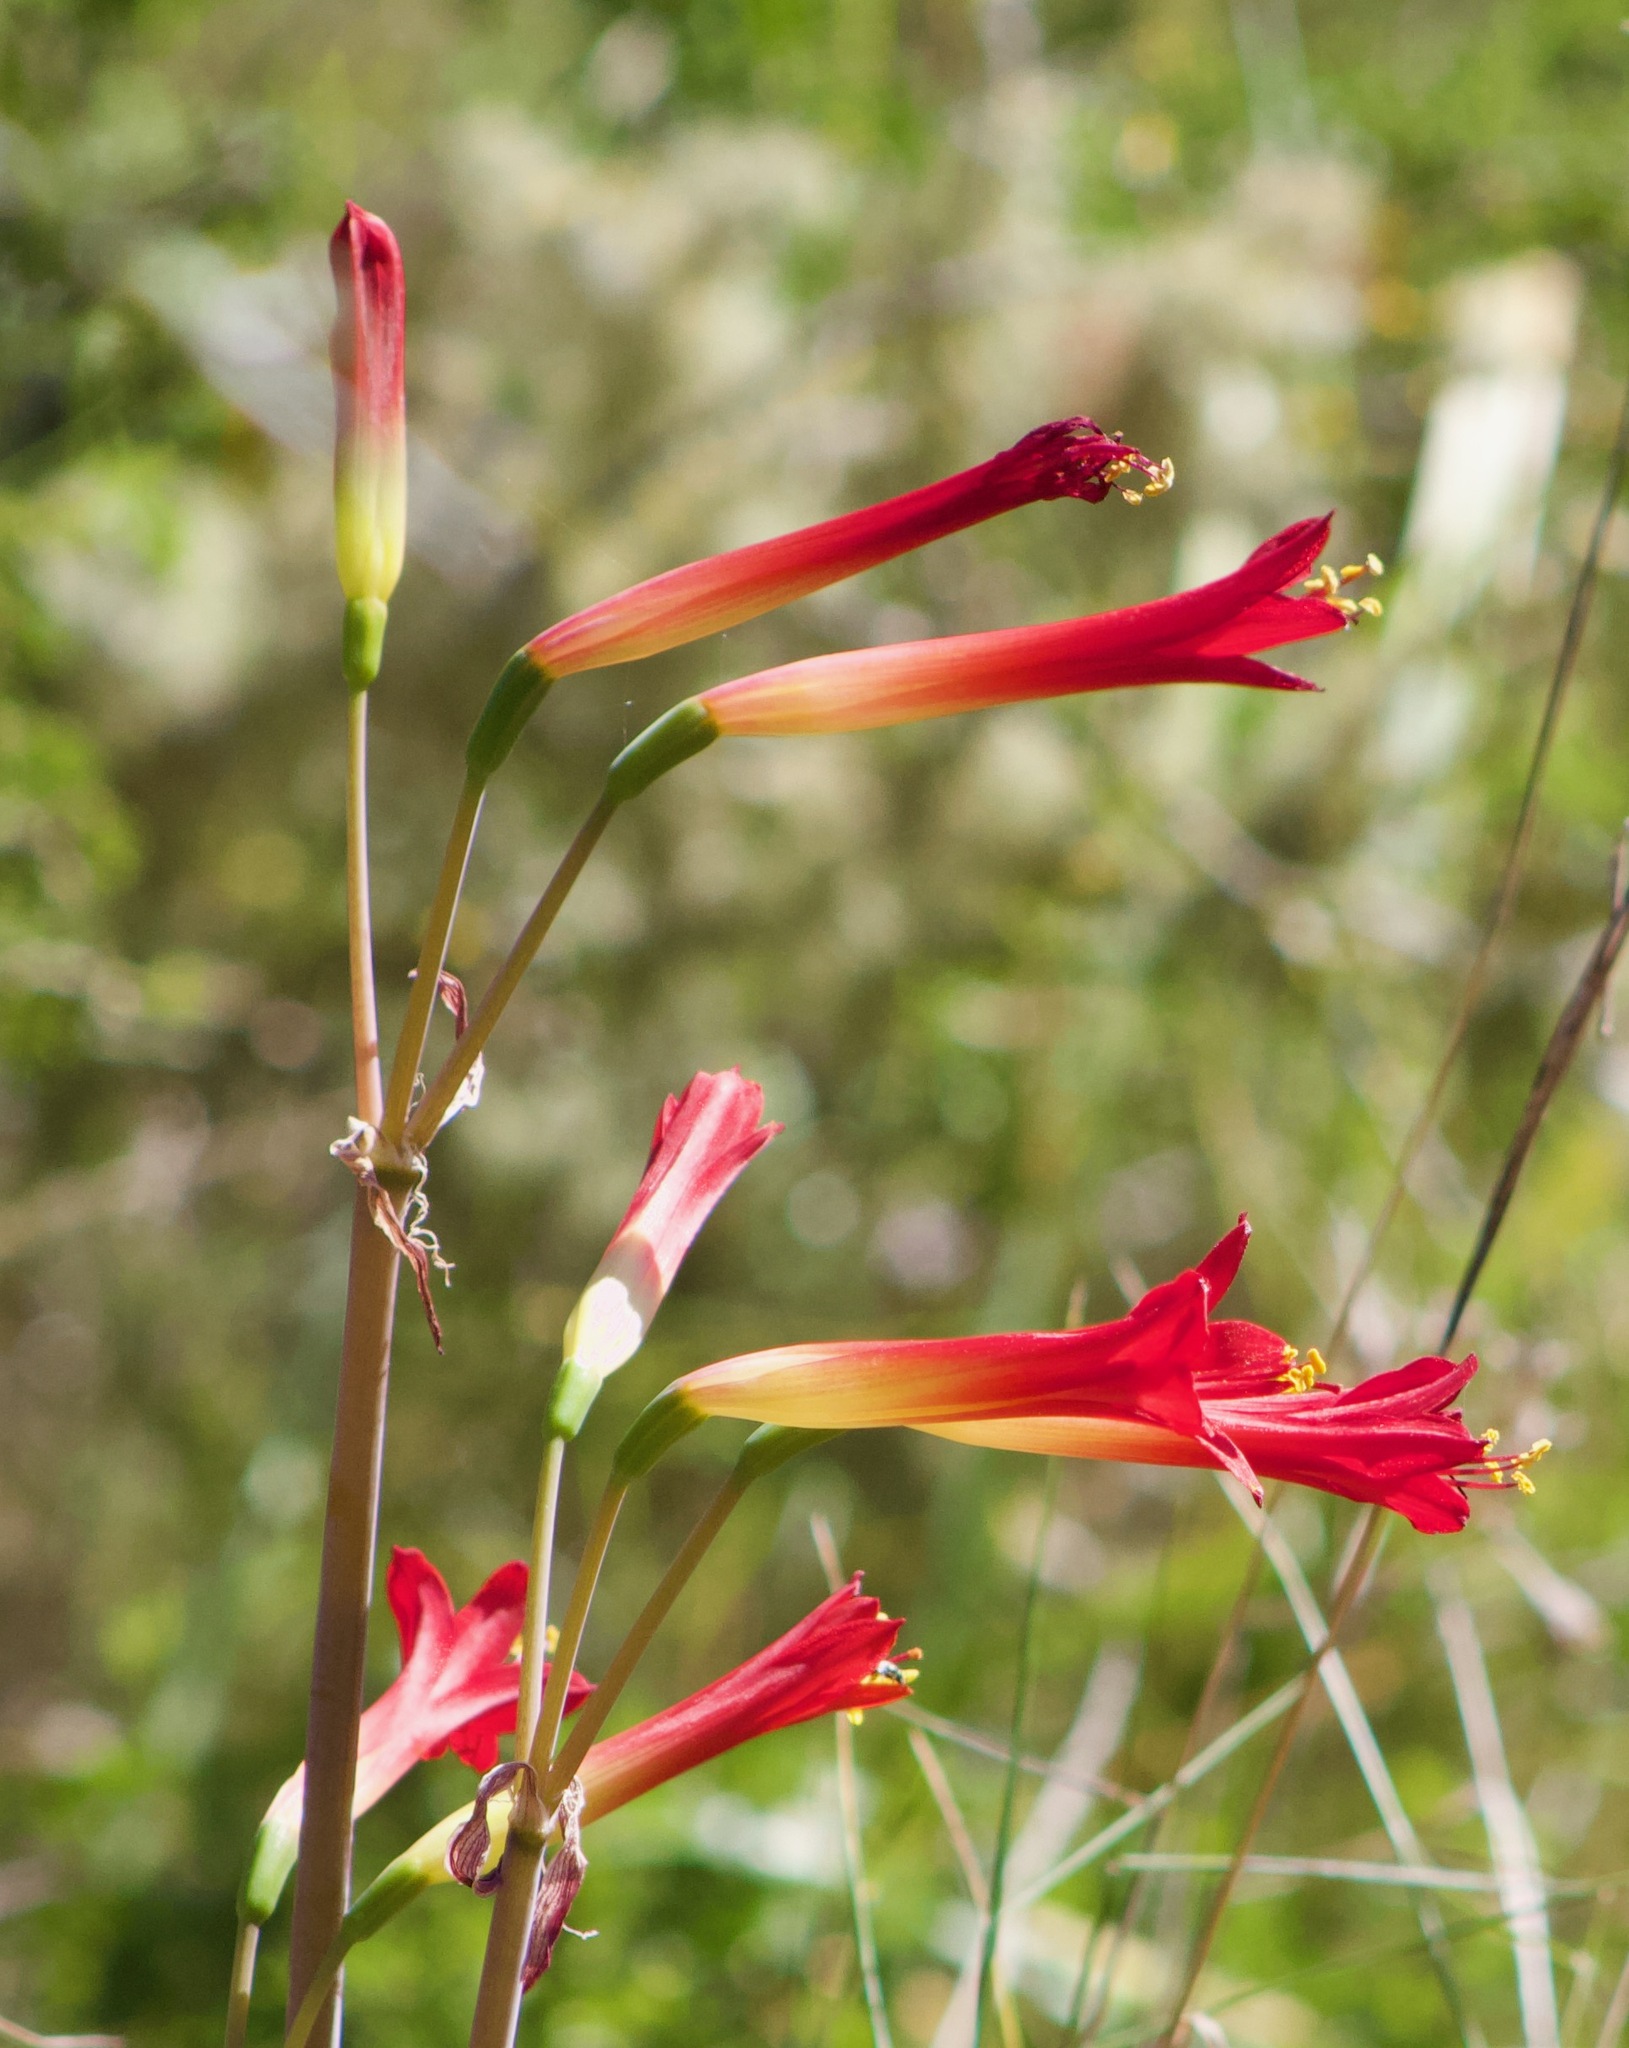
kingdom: Plantae
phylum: Tracheophyta
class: Liliopsida
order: Asparagales
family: Amaryllidaceae
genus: Phycella
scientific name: Phycella cyrtanthoides
